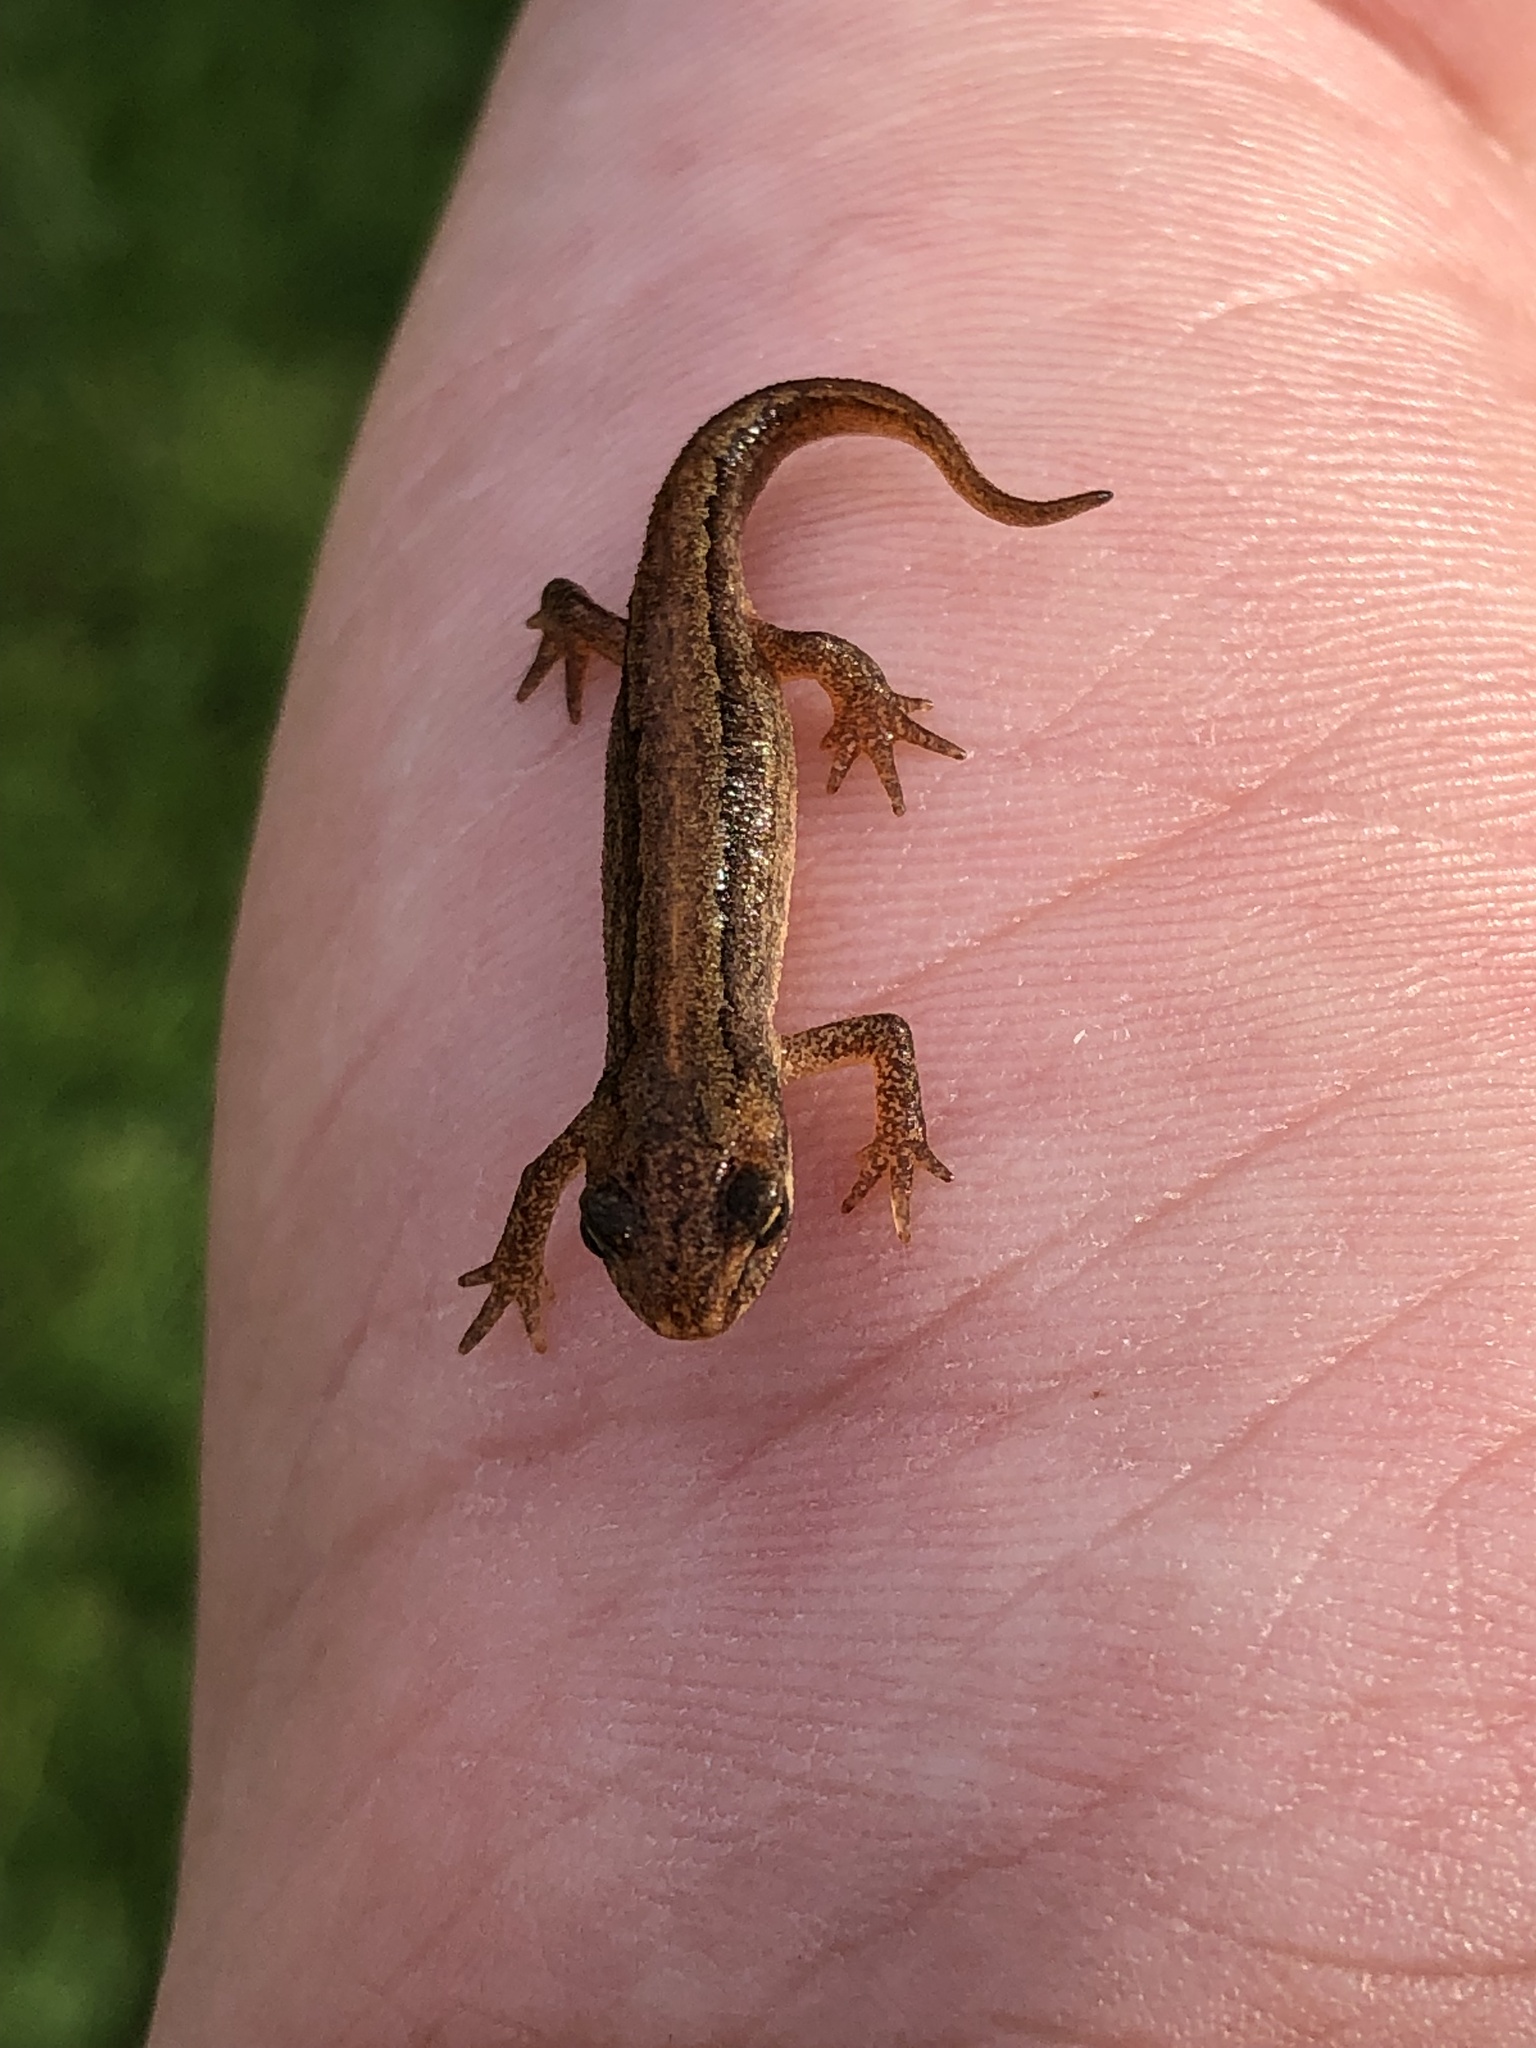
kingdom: Animalia
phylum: Chordata
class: Amphibia
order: Caudata
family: Salamandridae
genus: Lissotriton
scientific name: Lissotriton vulgaris
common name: Smooth newt
